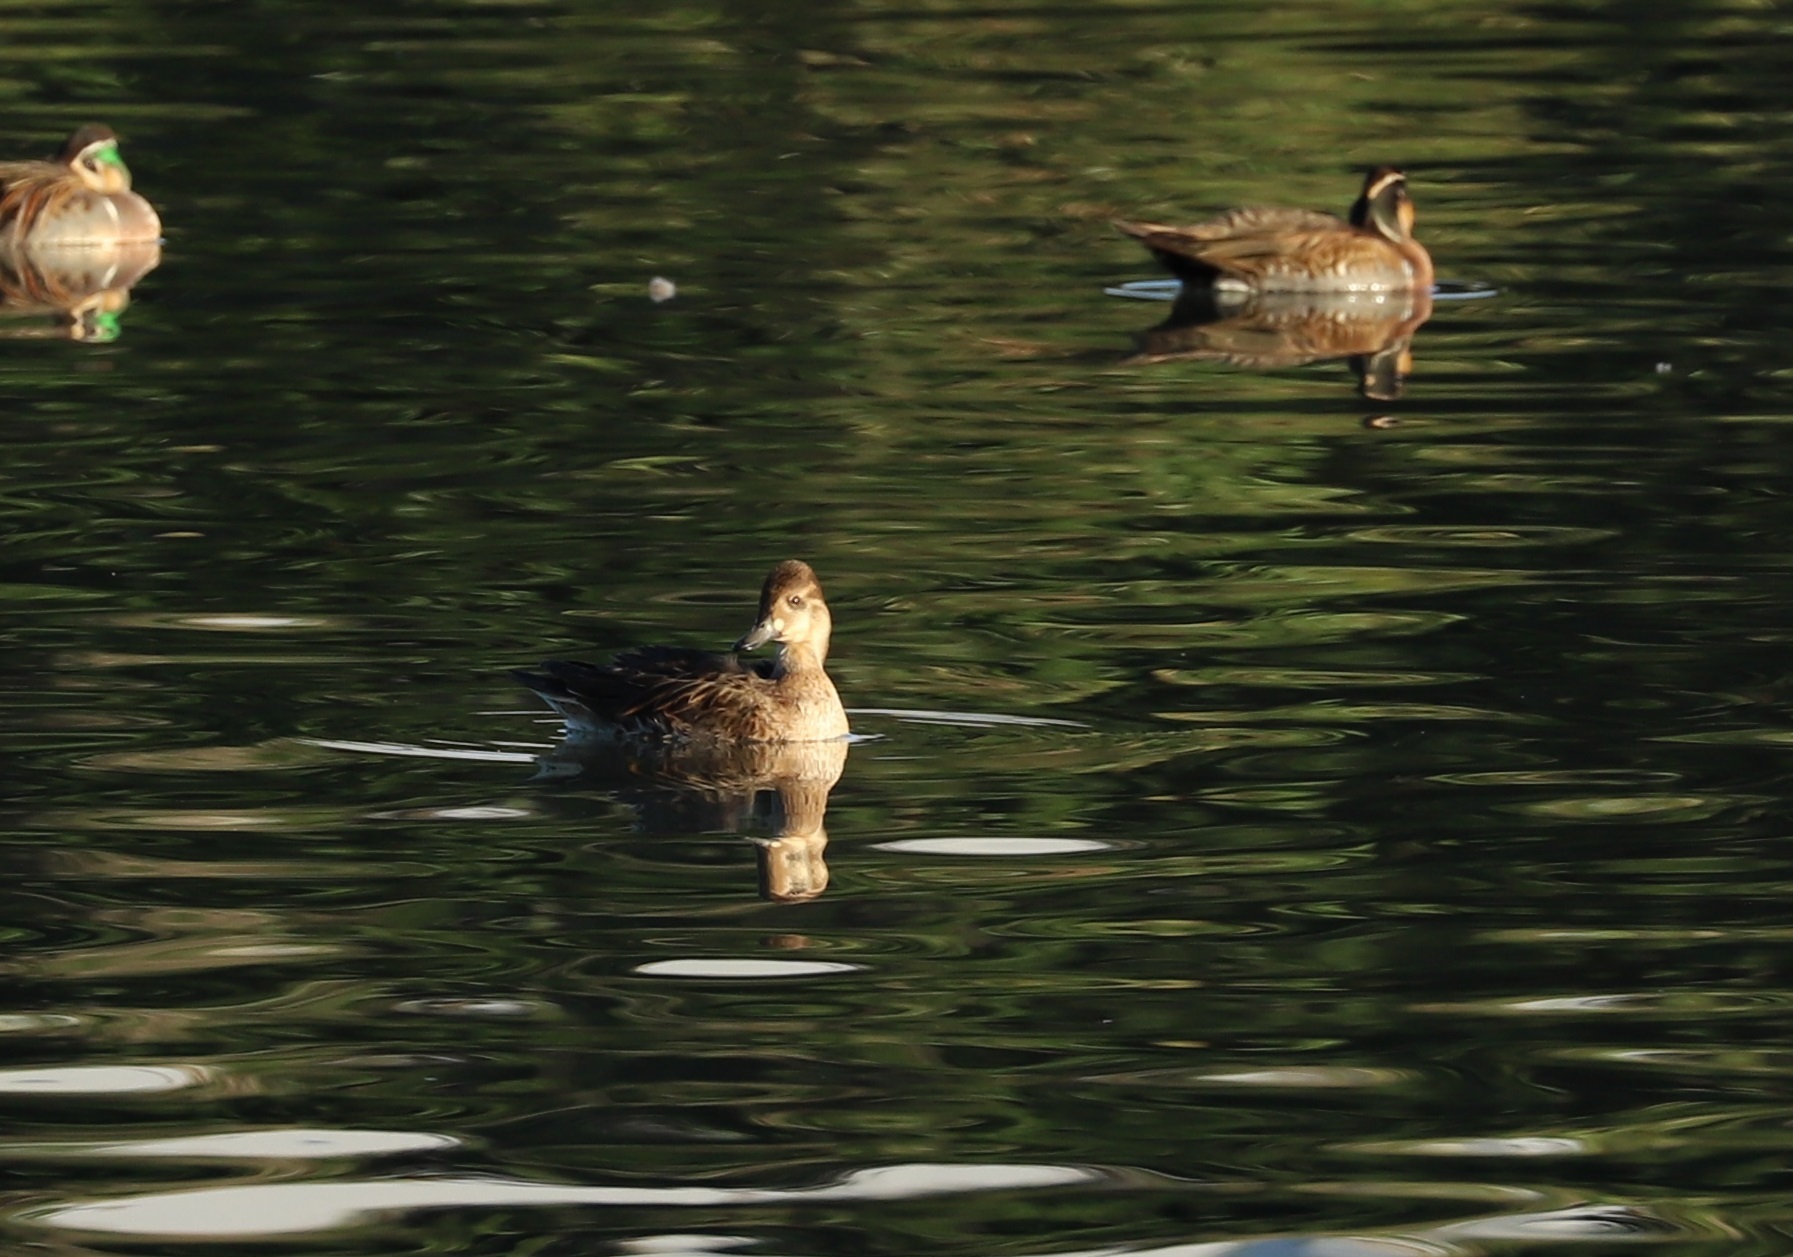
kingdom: Animalia
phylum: Chordata
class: Aves
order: Anseriformes
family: Anatidae
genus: Sibirionetta
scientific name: Sibirionetta formosa
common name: Baikal teal
